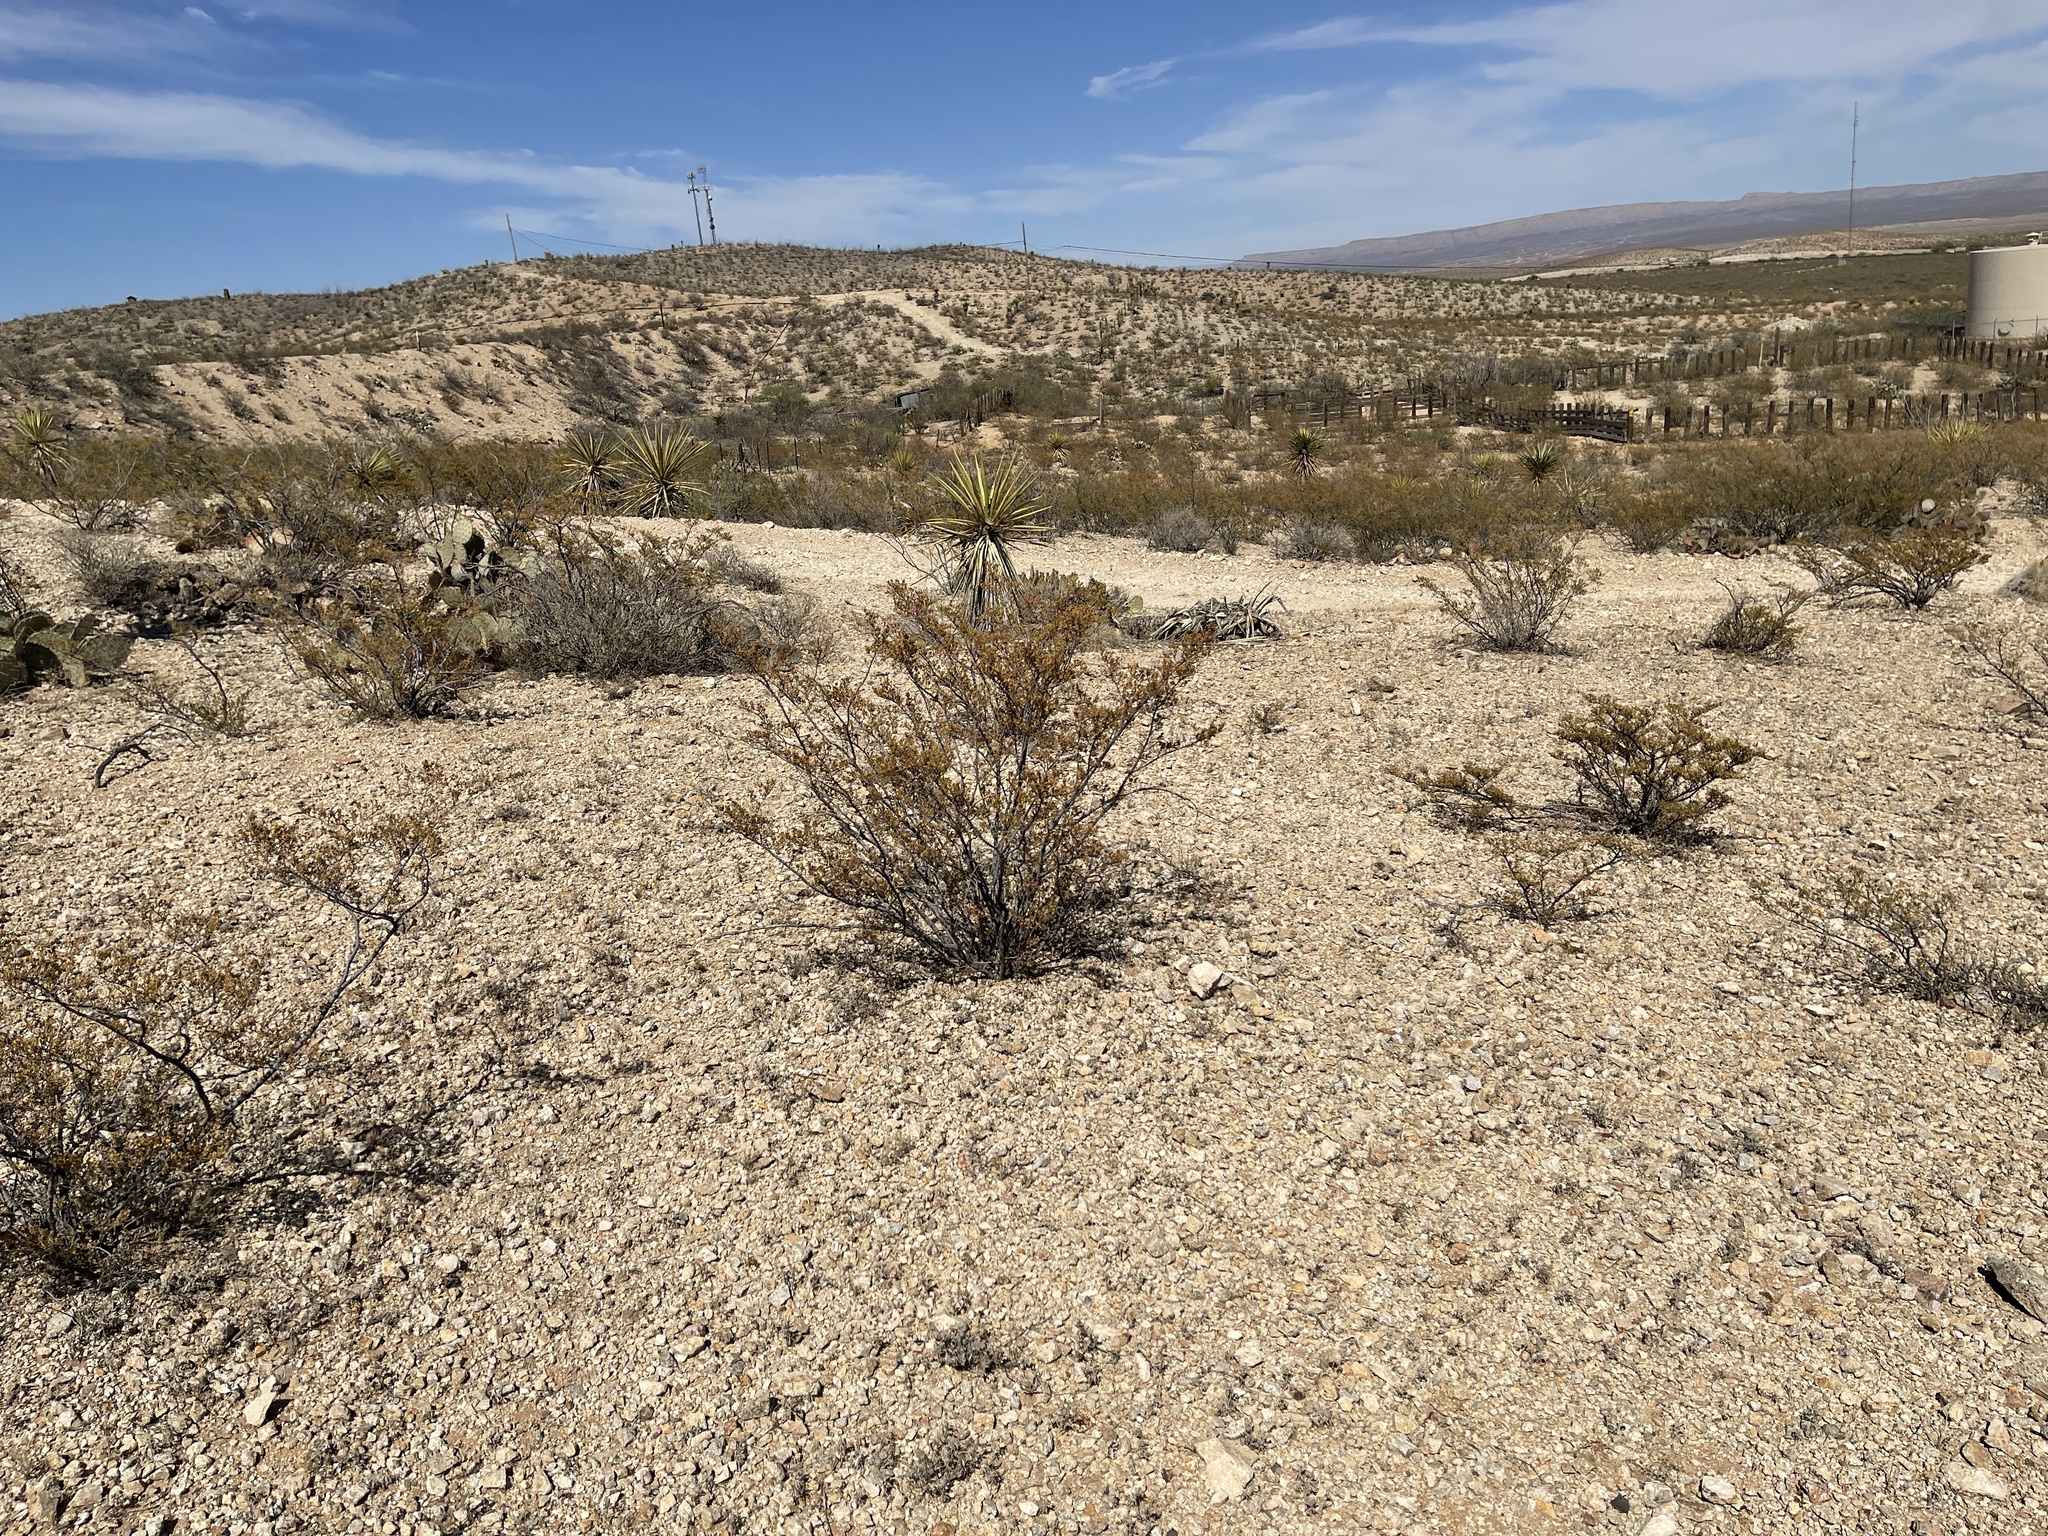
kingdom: Plantae
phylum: Tracheophyta
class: Magnoliopsida
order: Zygophyllales
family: Zygophyllaceae
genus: Larrea
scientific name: Larrea tridentata
